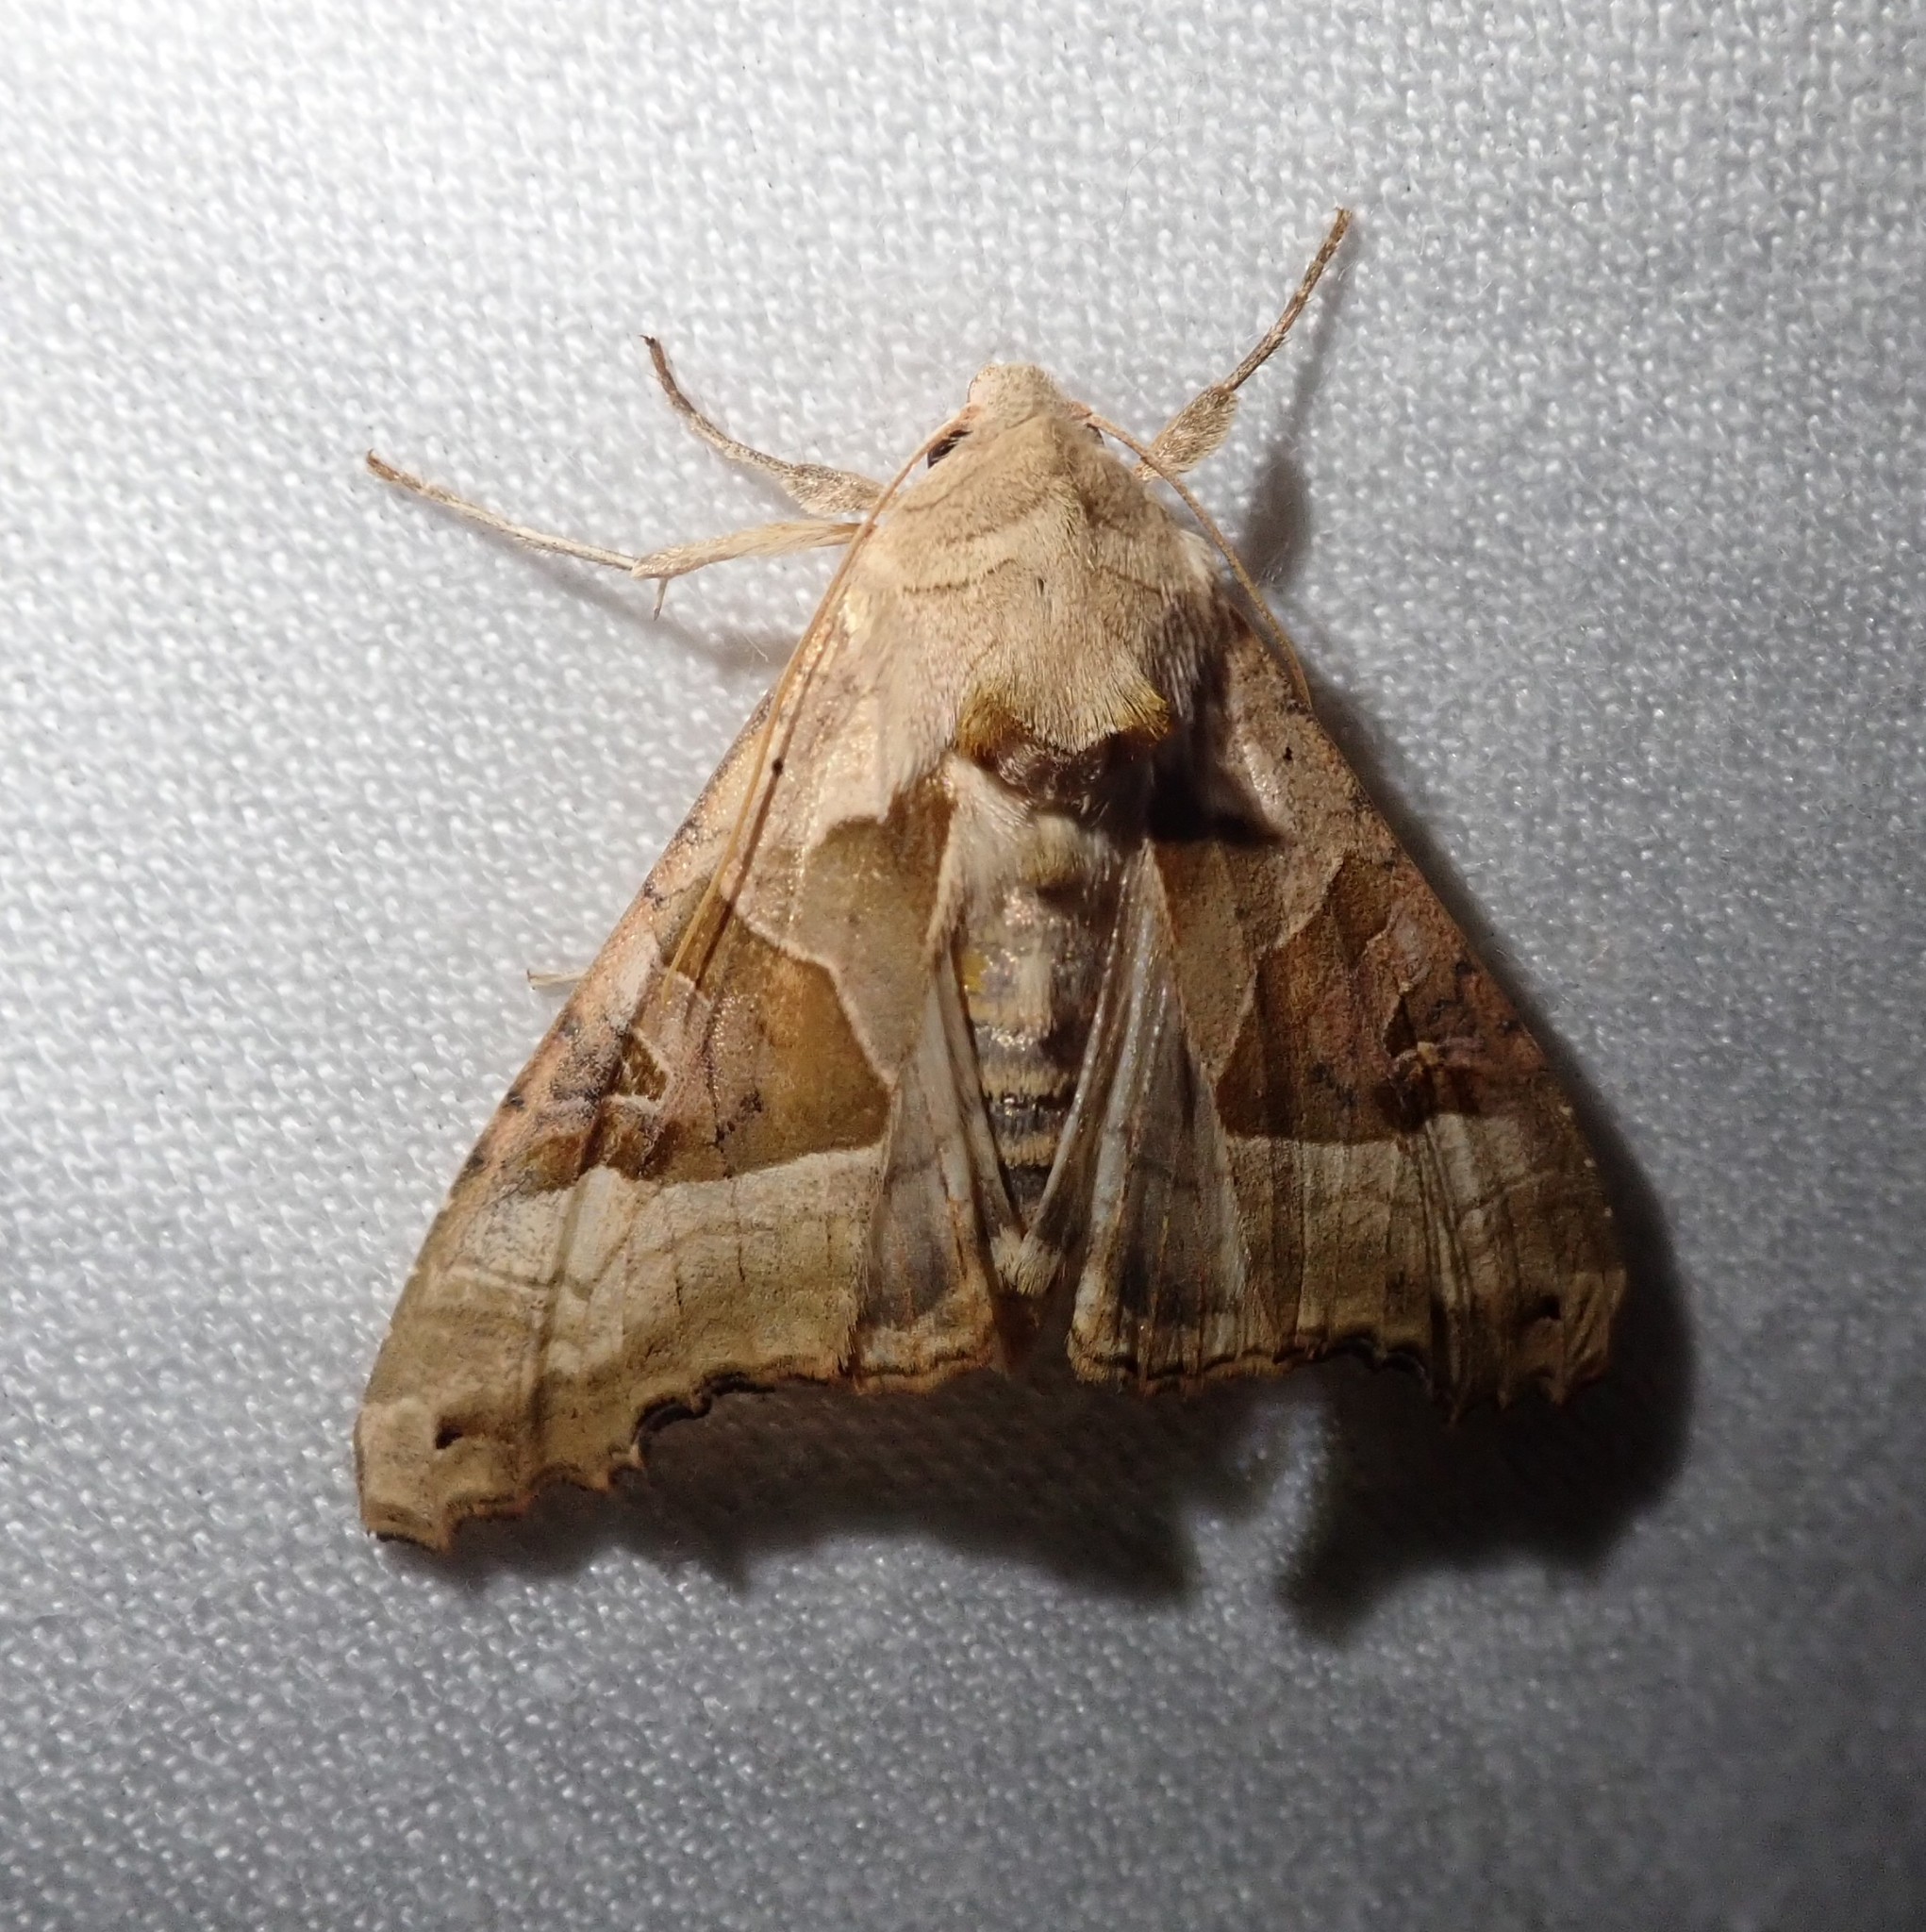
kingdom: Animalia
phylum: Arthropoda
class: Insecta
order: Lepidoptera
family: Noctuidae
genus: Phlogophora
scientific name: Phlogophora meticulosa
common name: Angle shades
